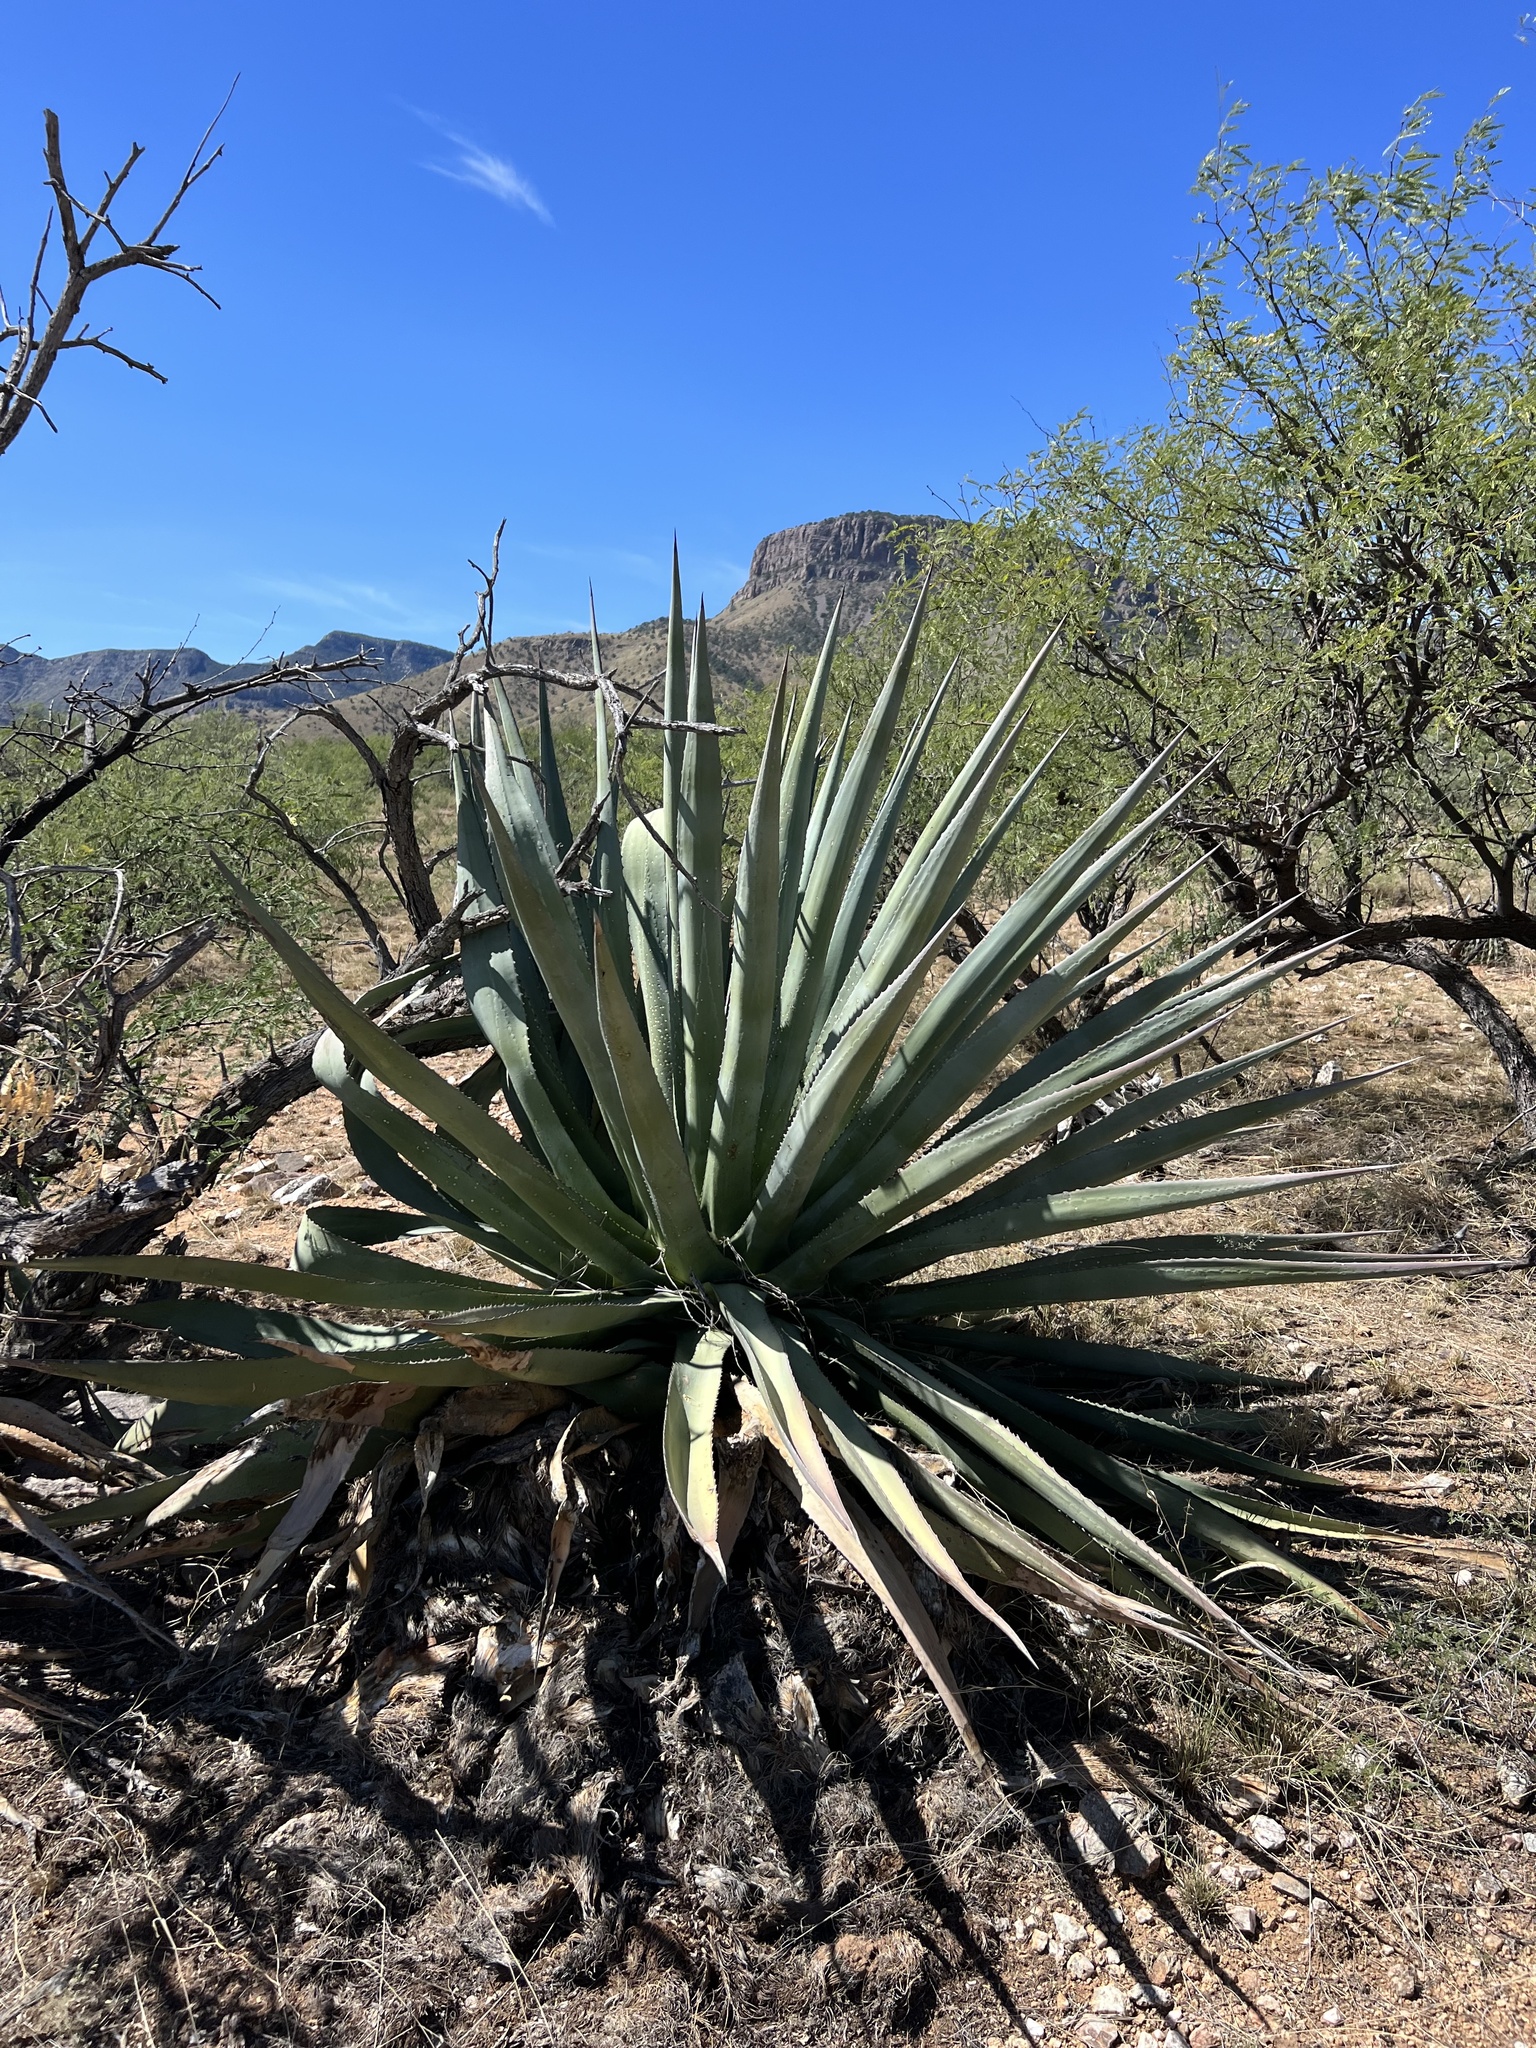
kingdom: Plantae
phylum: Tracheophyta
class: Liliopsida
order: Asparagales
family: Asparagaceae
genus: Agave
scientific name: Agave palmeri
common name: Palmer agave
